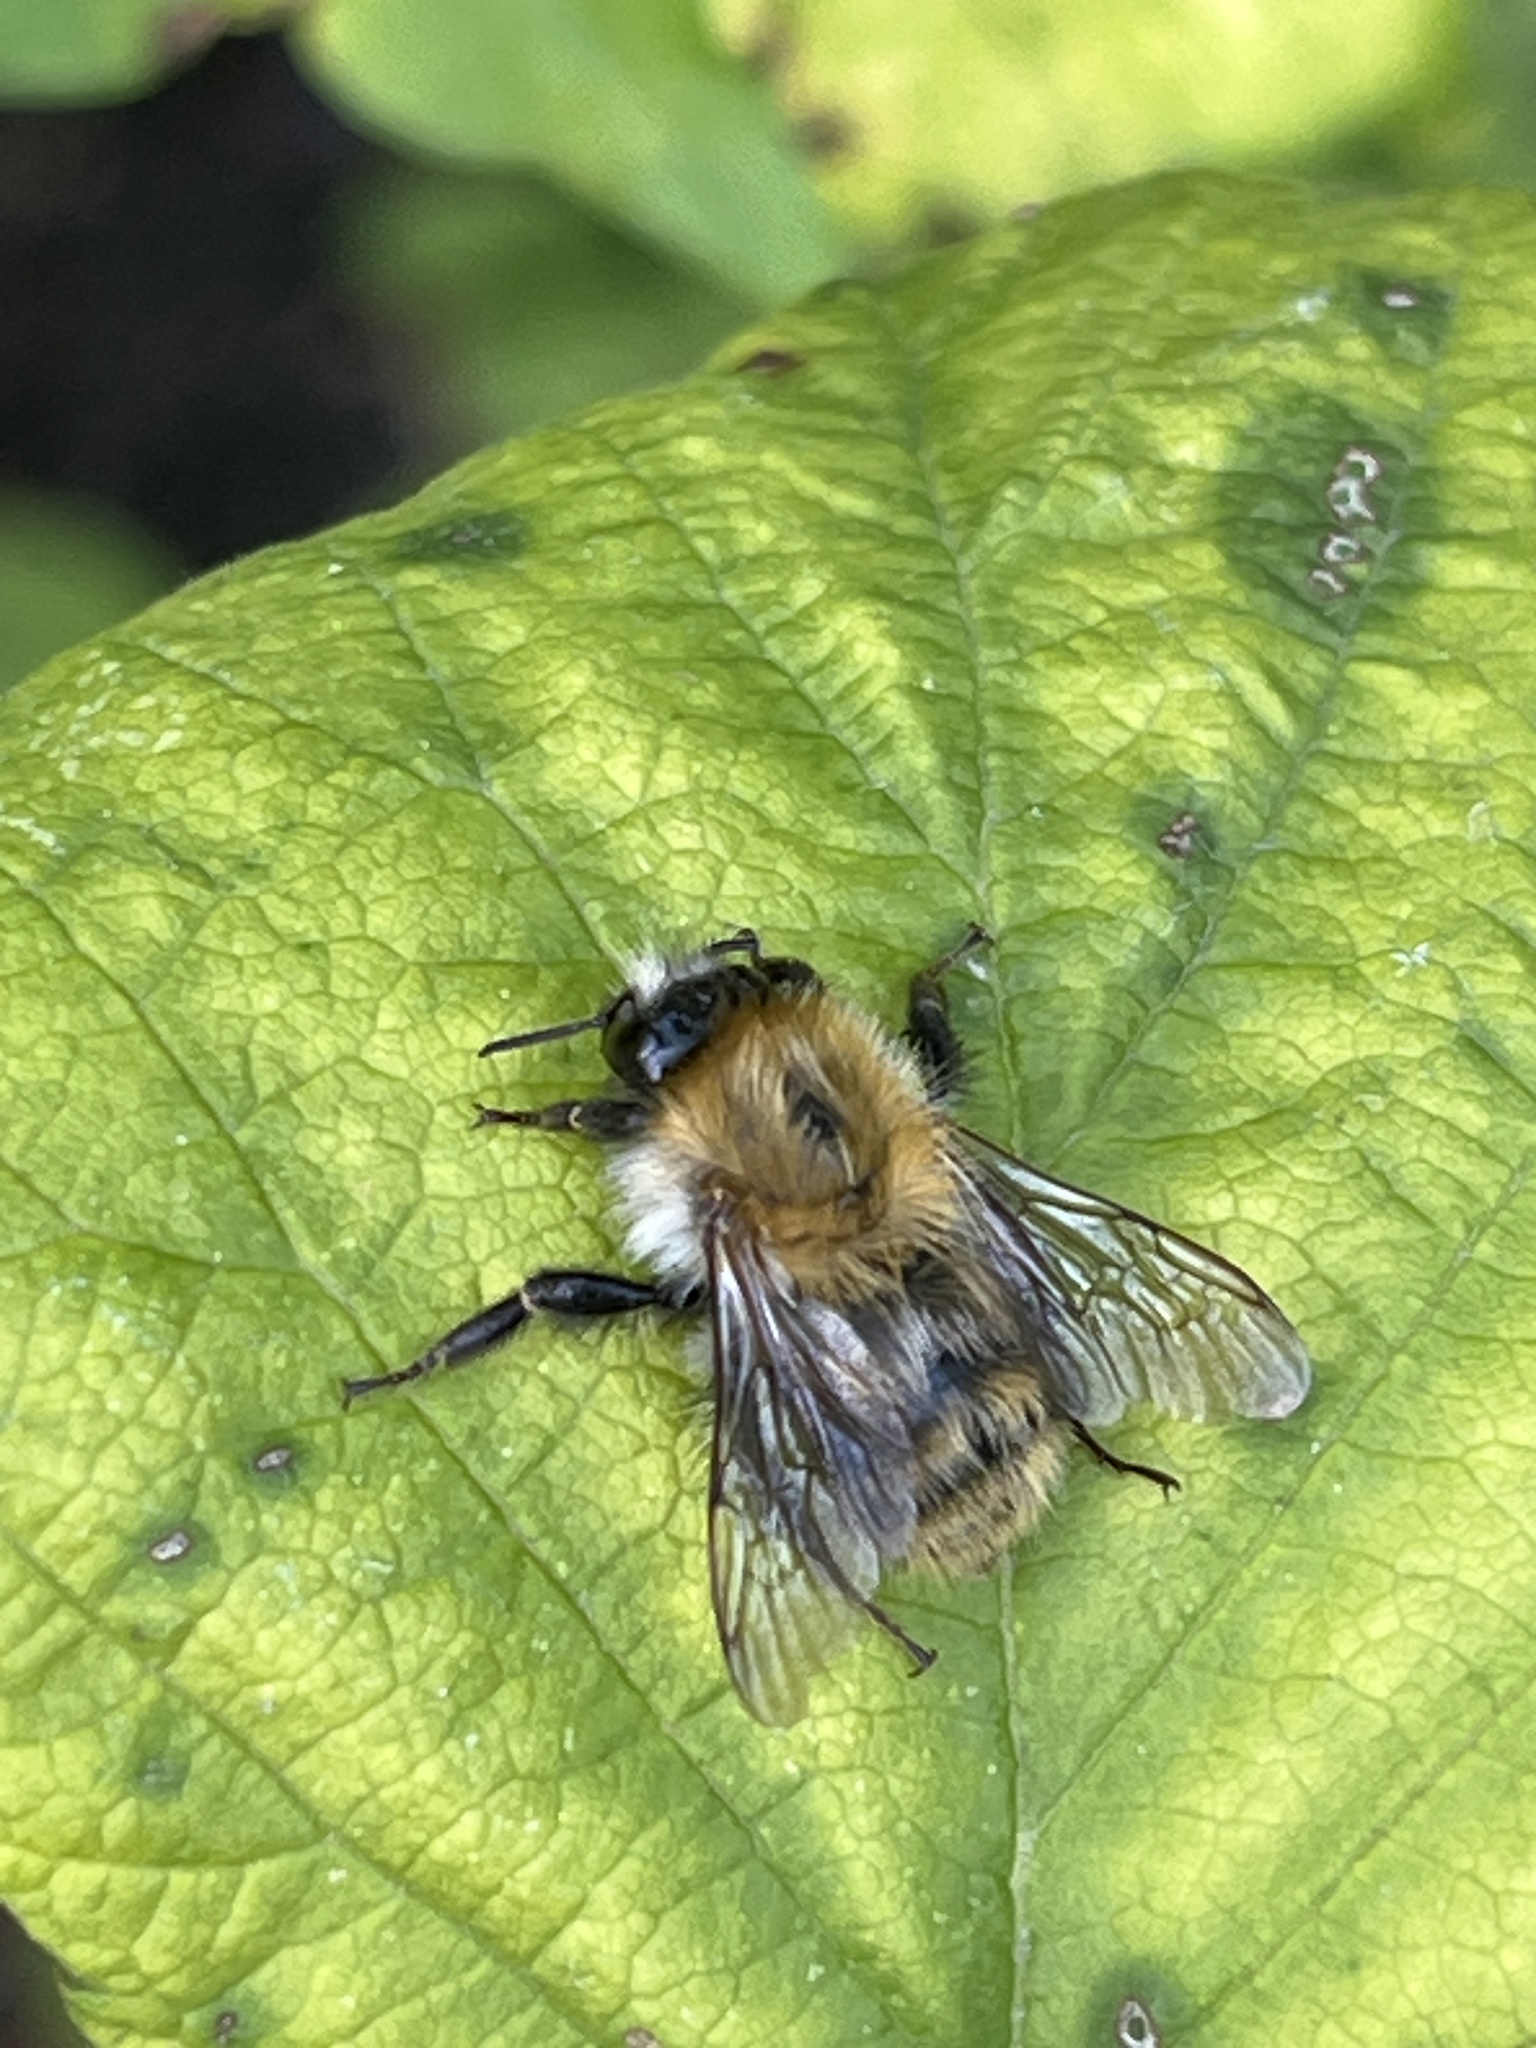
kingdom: Animalia
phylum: Arthropoda
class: Insecta
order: Hymenoptera
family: Apidae
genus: Bombus
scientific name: Bombus pascuorum
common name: Common carder bee
